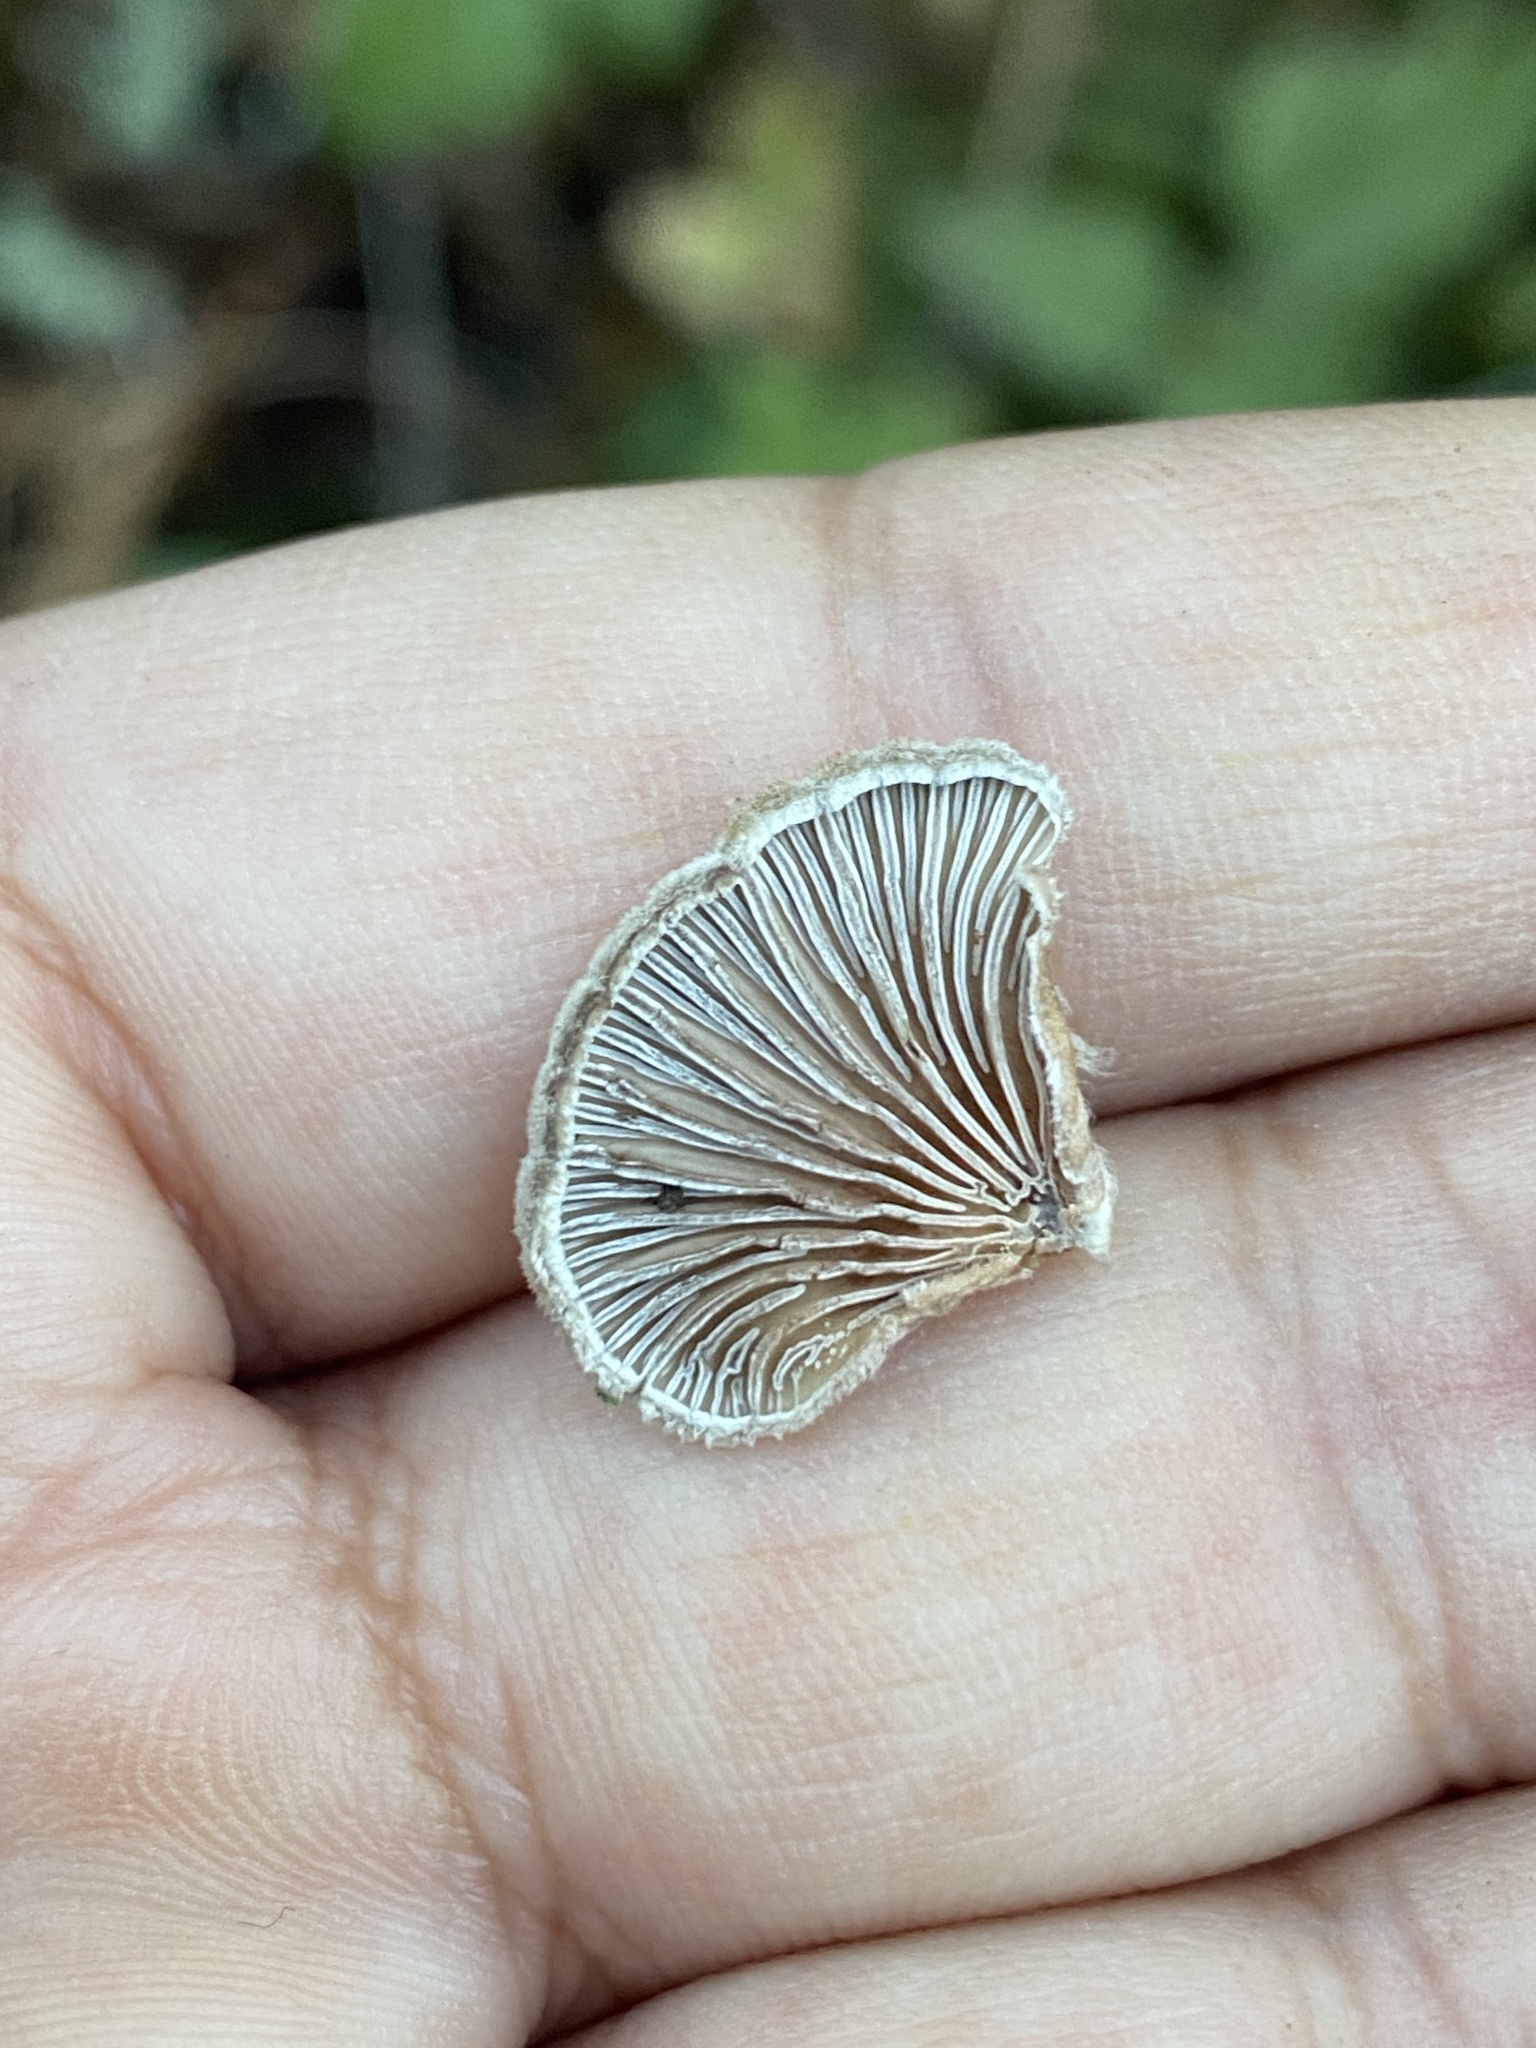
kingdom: Fungi
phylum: Basidiomycota
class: Agaricomycetes
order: Agaricales
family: Schizophyllaceae
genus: Schizophyllum
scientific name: Schizophyllum commune
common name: Common porecrust
